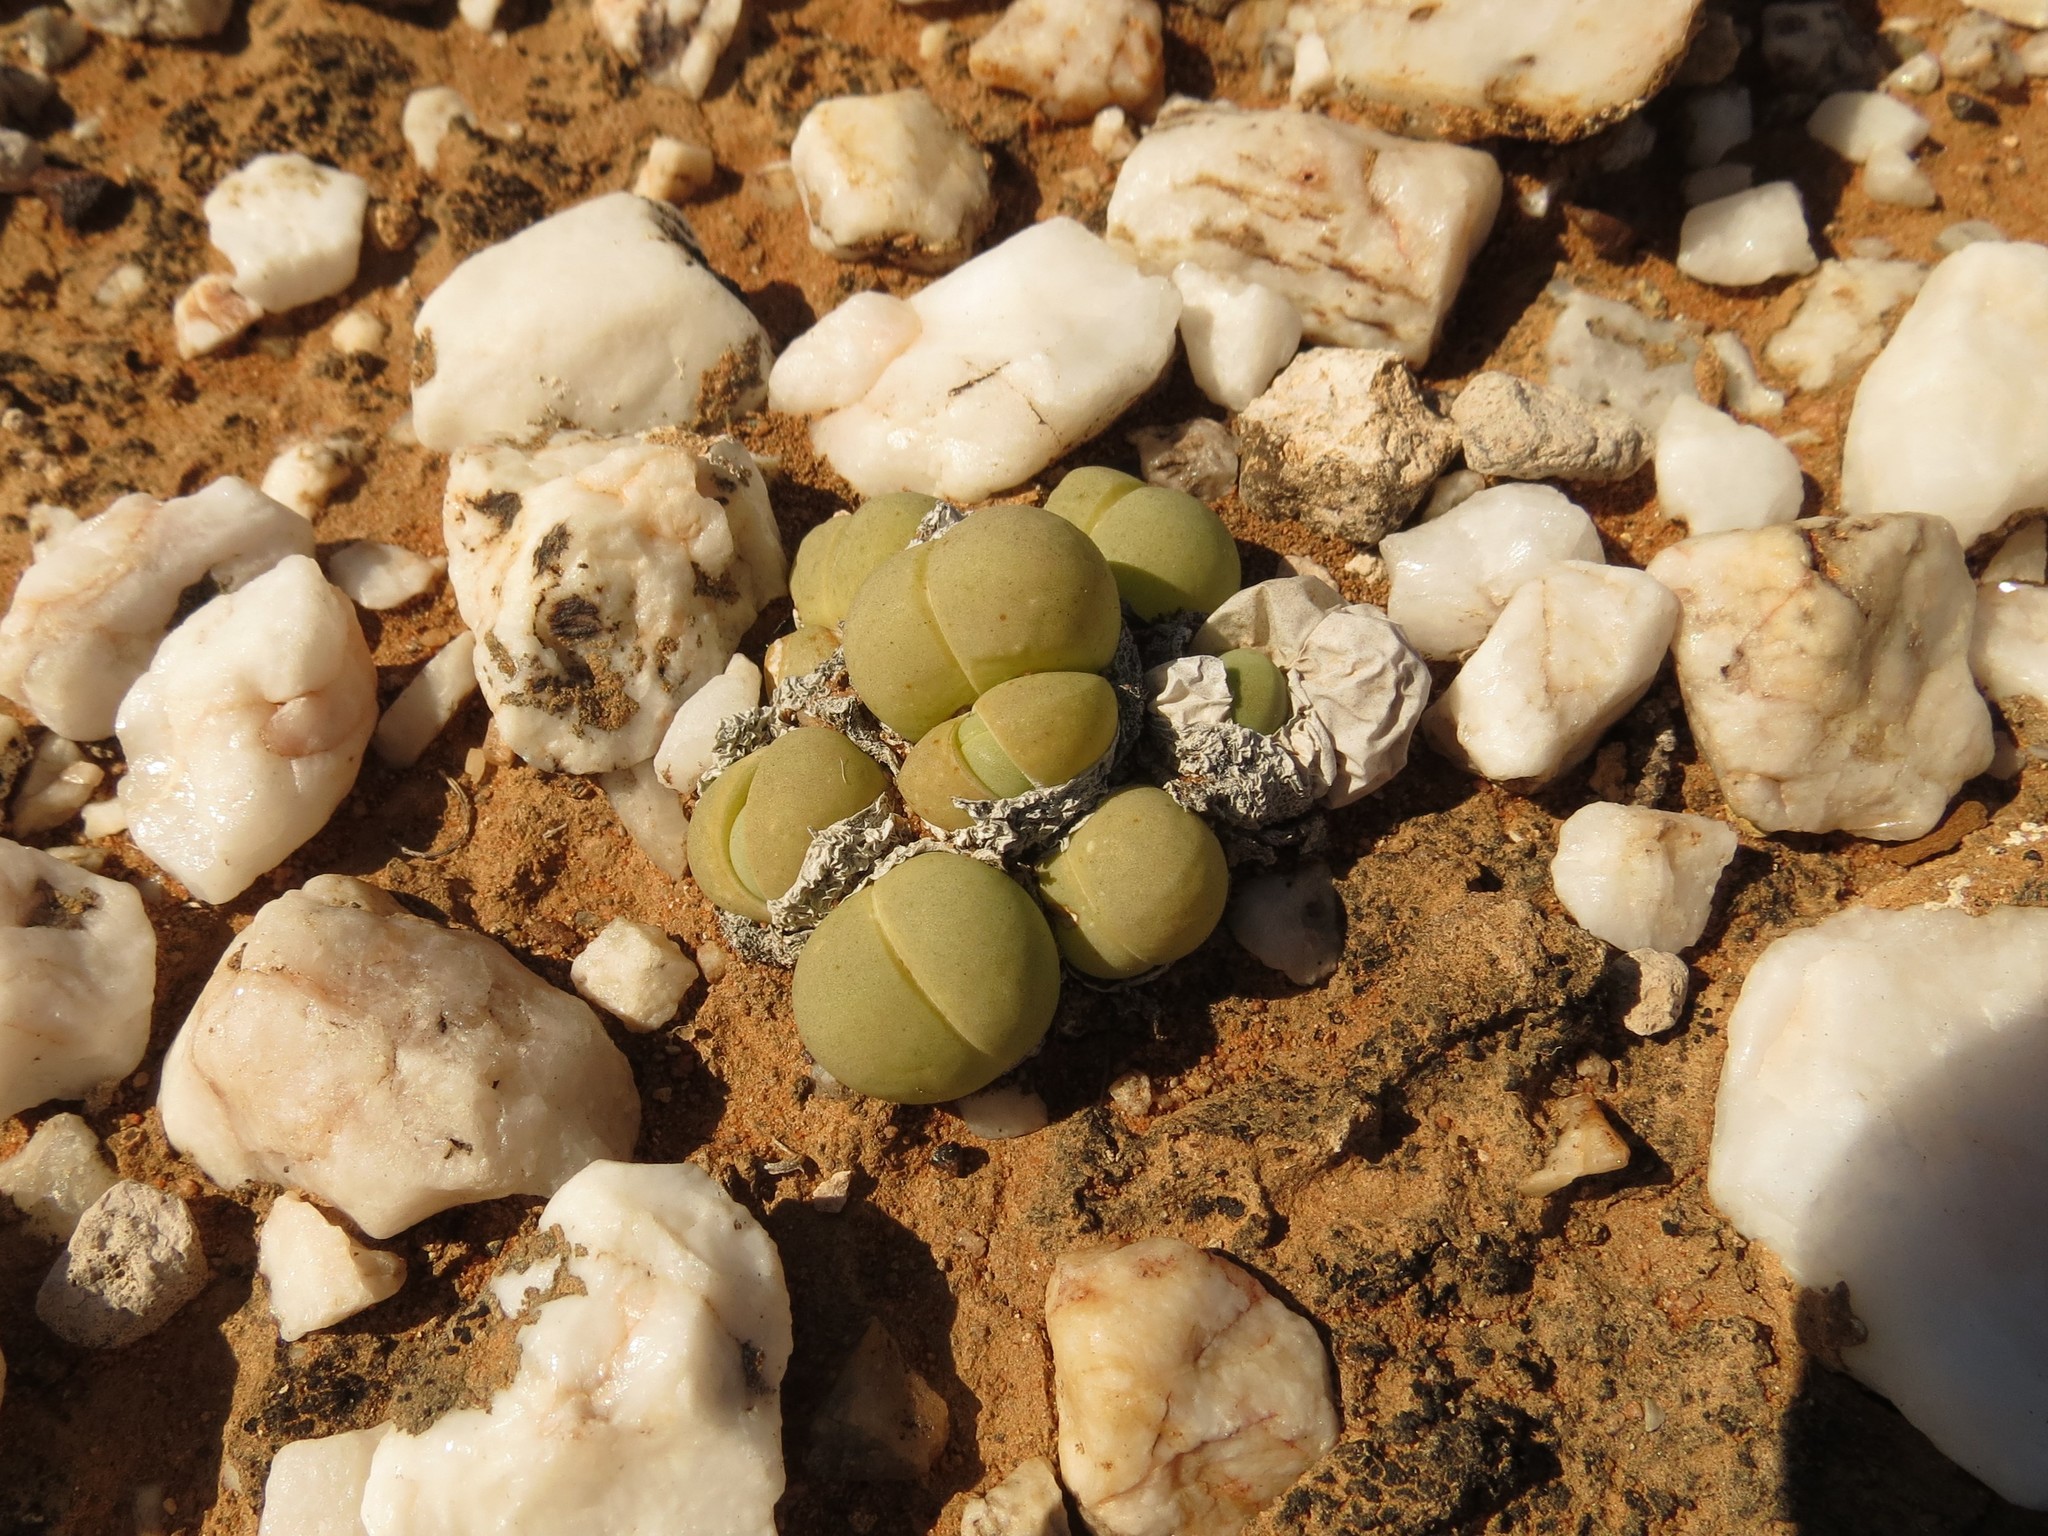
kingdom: Plantae
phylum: Tracheophyta
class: Magnoliopsida
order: Caryophyllales
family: Aizoaceae
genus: Gibbaeum
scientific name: Gibbaeum heathii
